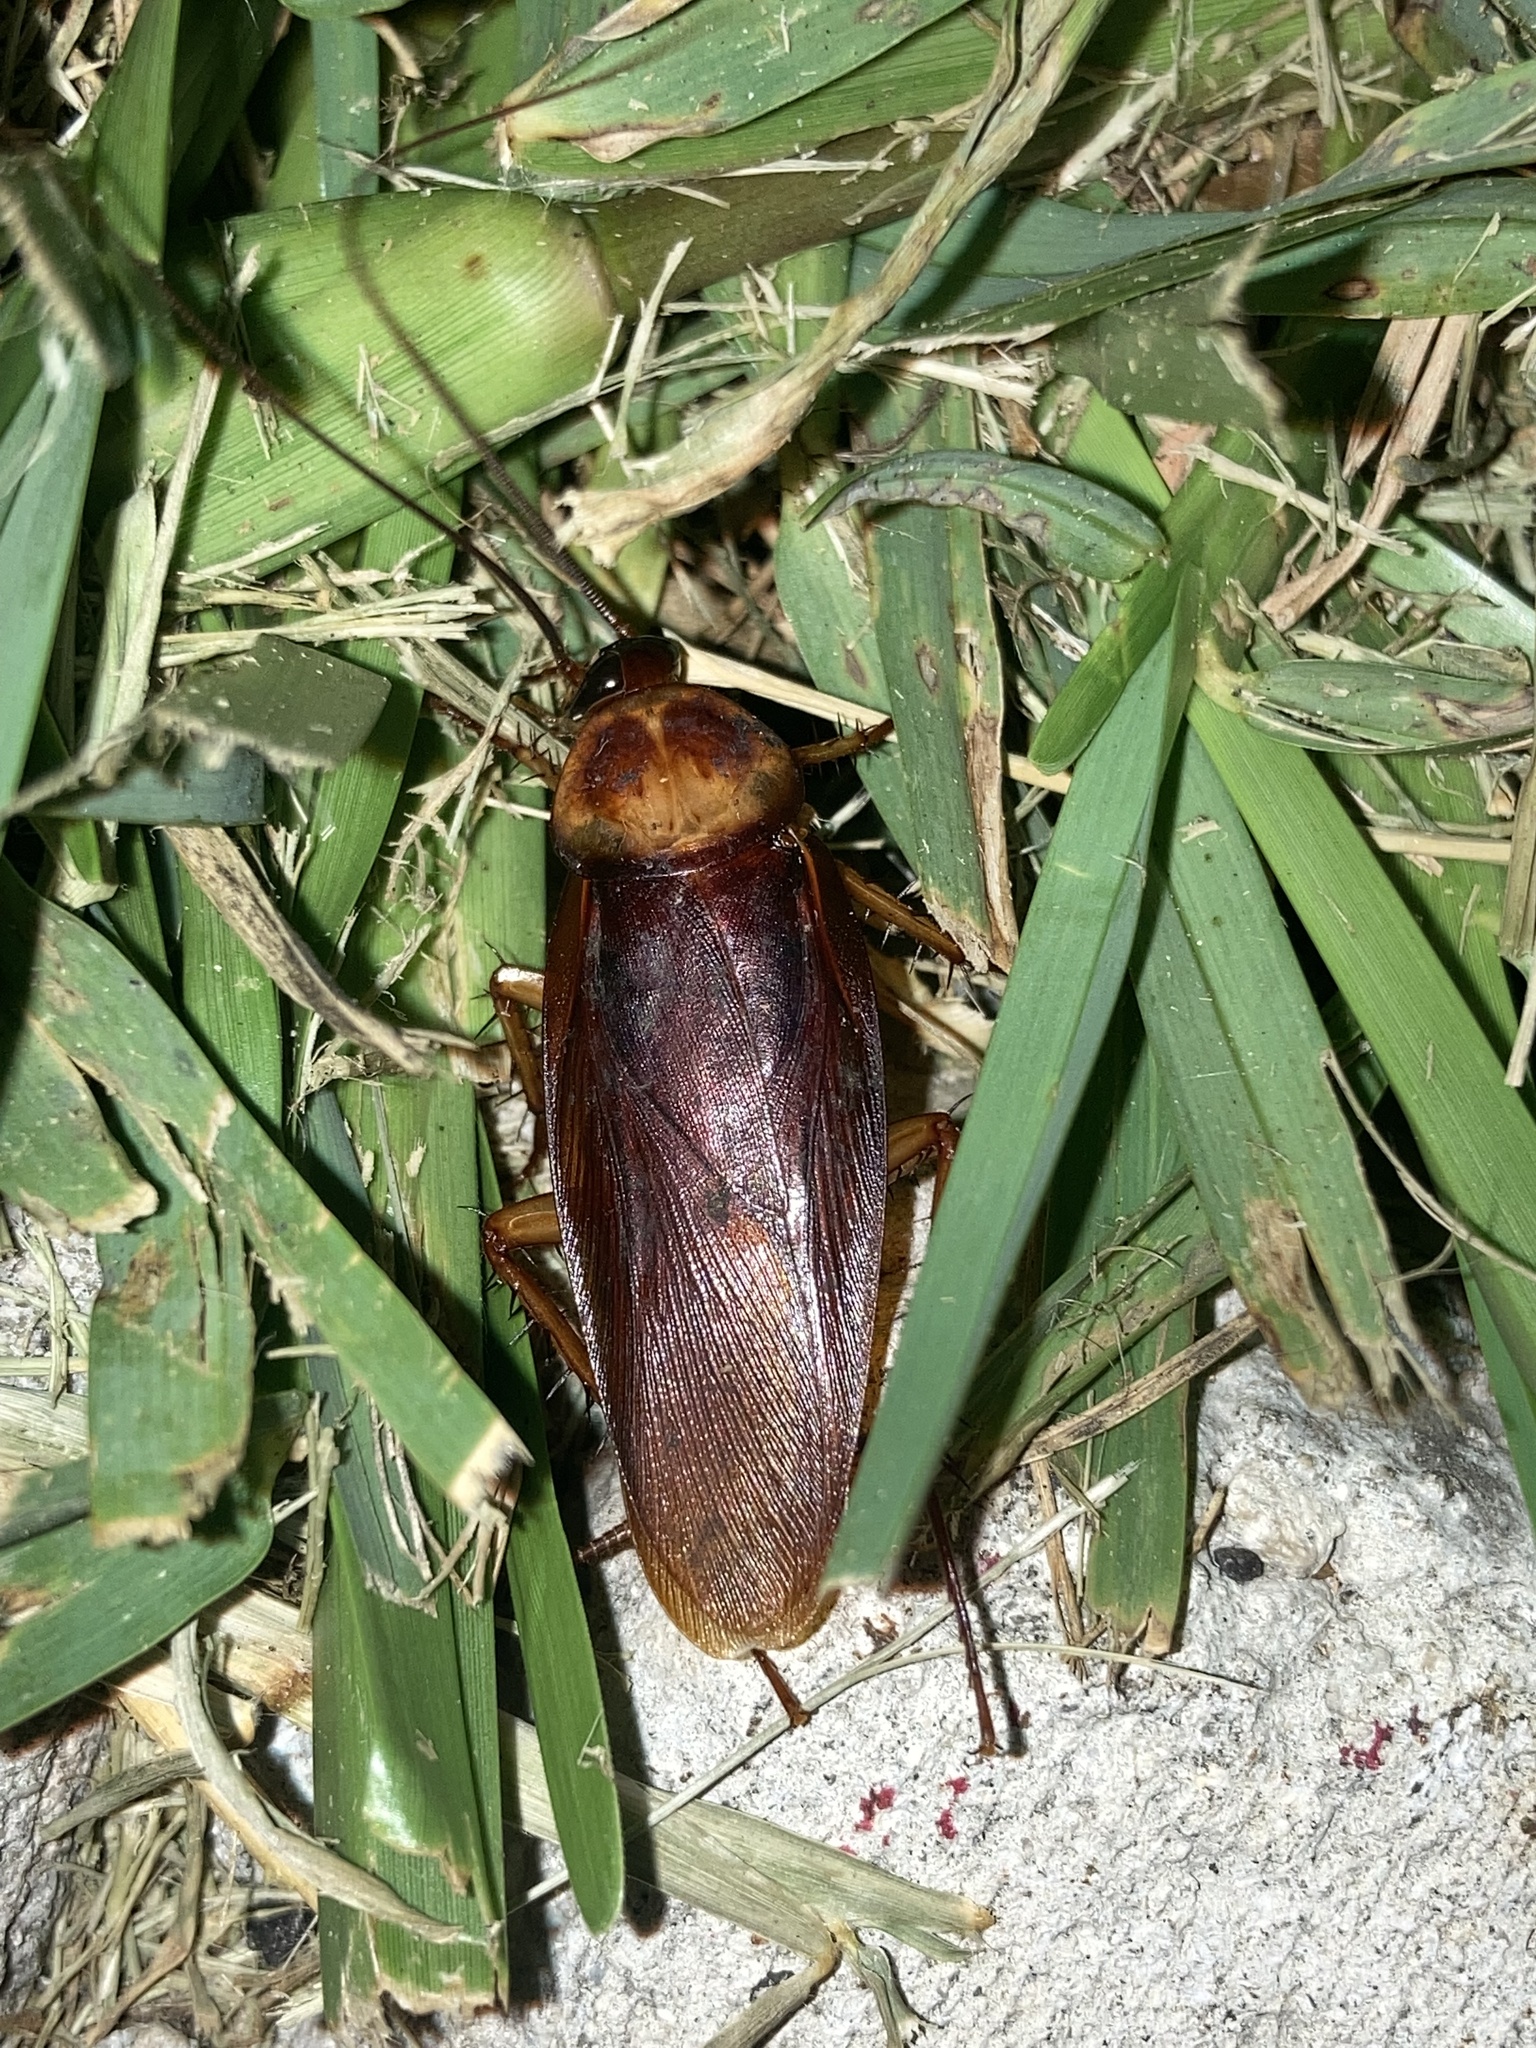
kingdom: Animalia
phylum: Arthropoda
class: Insecta
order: Blattodea
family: Blattidae
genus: Periplaneta
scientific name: Periplaneta americana
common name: American cockroach
